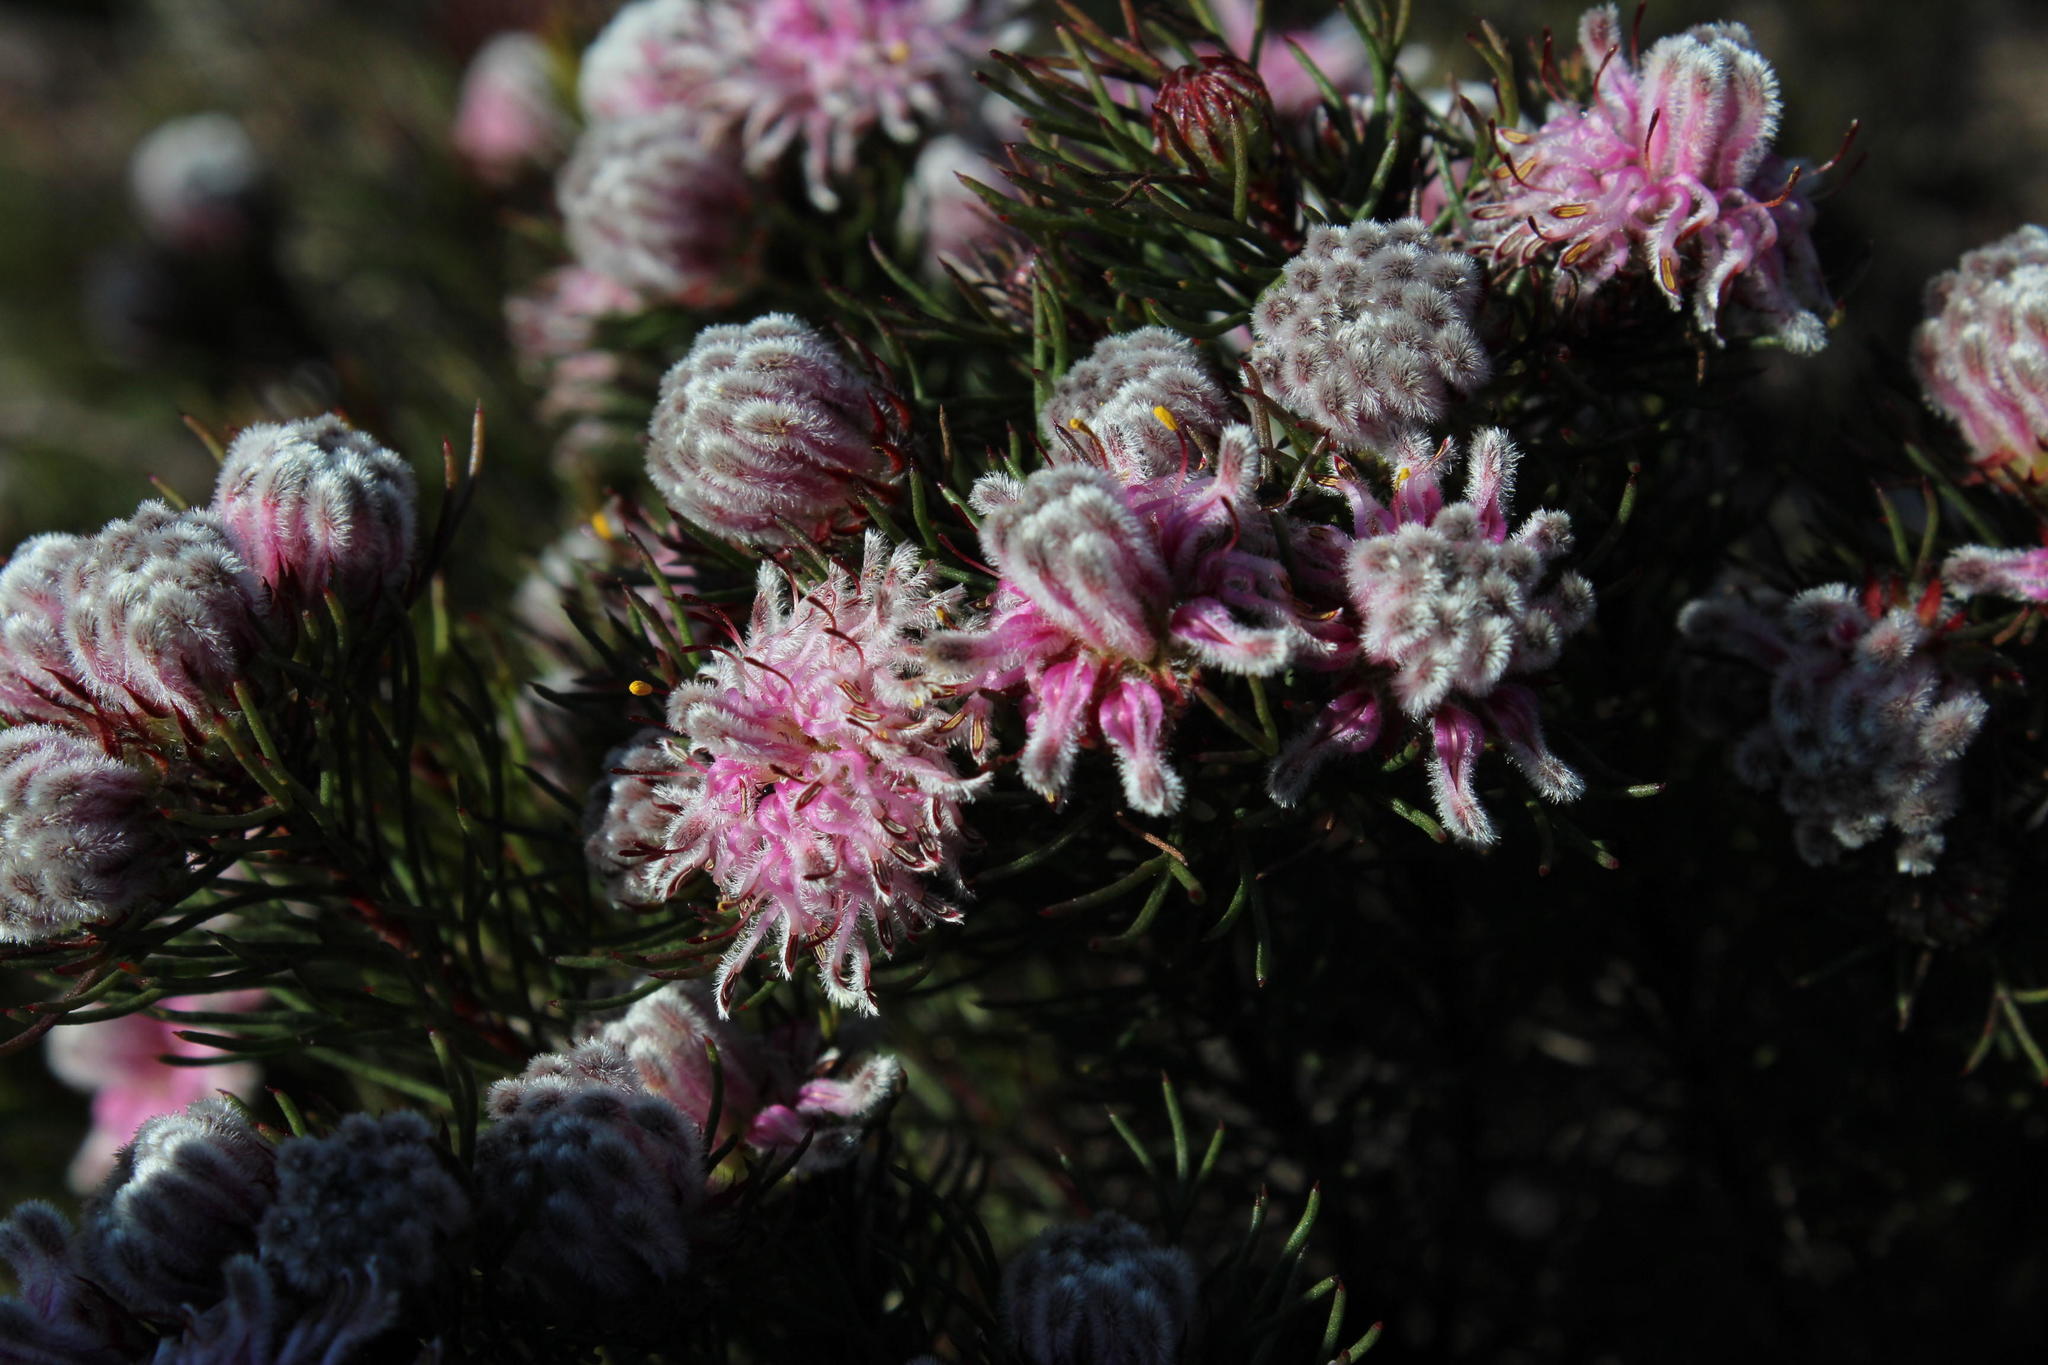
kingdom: Plantae
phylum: Tracheophyta
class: Magnoliopsida
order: Proteales
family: Proteaceae
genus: Serruria
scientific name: Serruria aemula
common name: Strawberry spiderhead
